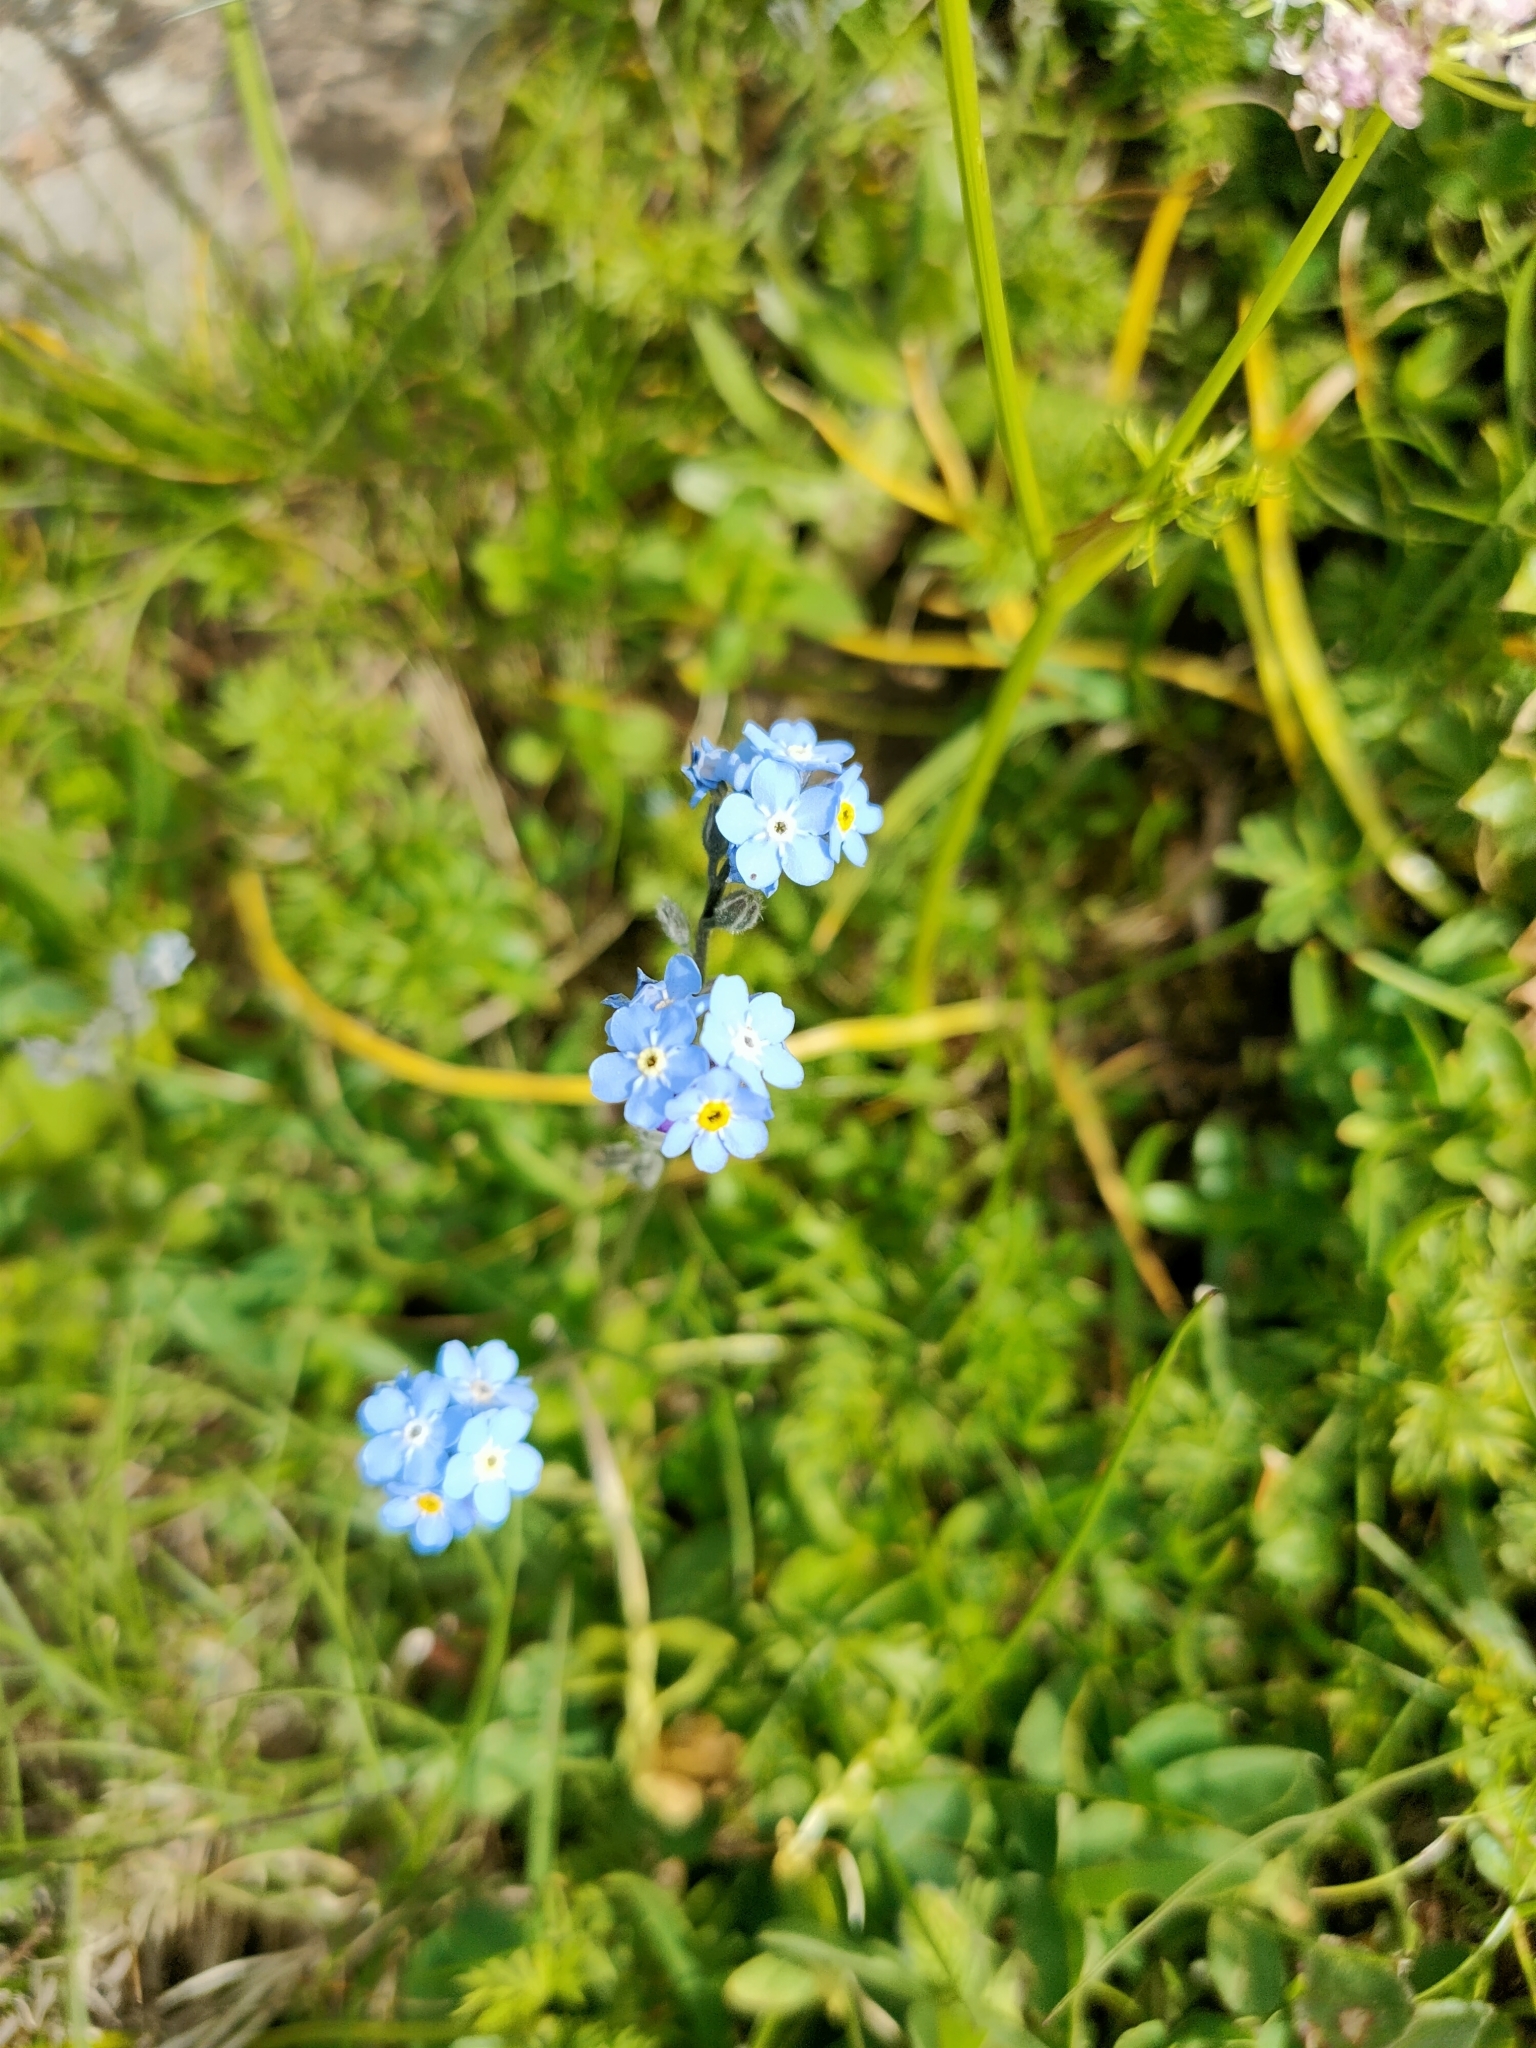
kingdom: Plantae
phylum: Tracheophyta
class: Magnoliopsida
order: Boraginales
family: Boraginaceae
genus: Myosotis
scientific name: Myosotis alpestris
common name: Alpine forget-me-not
